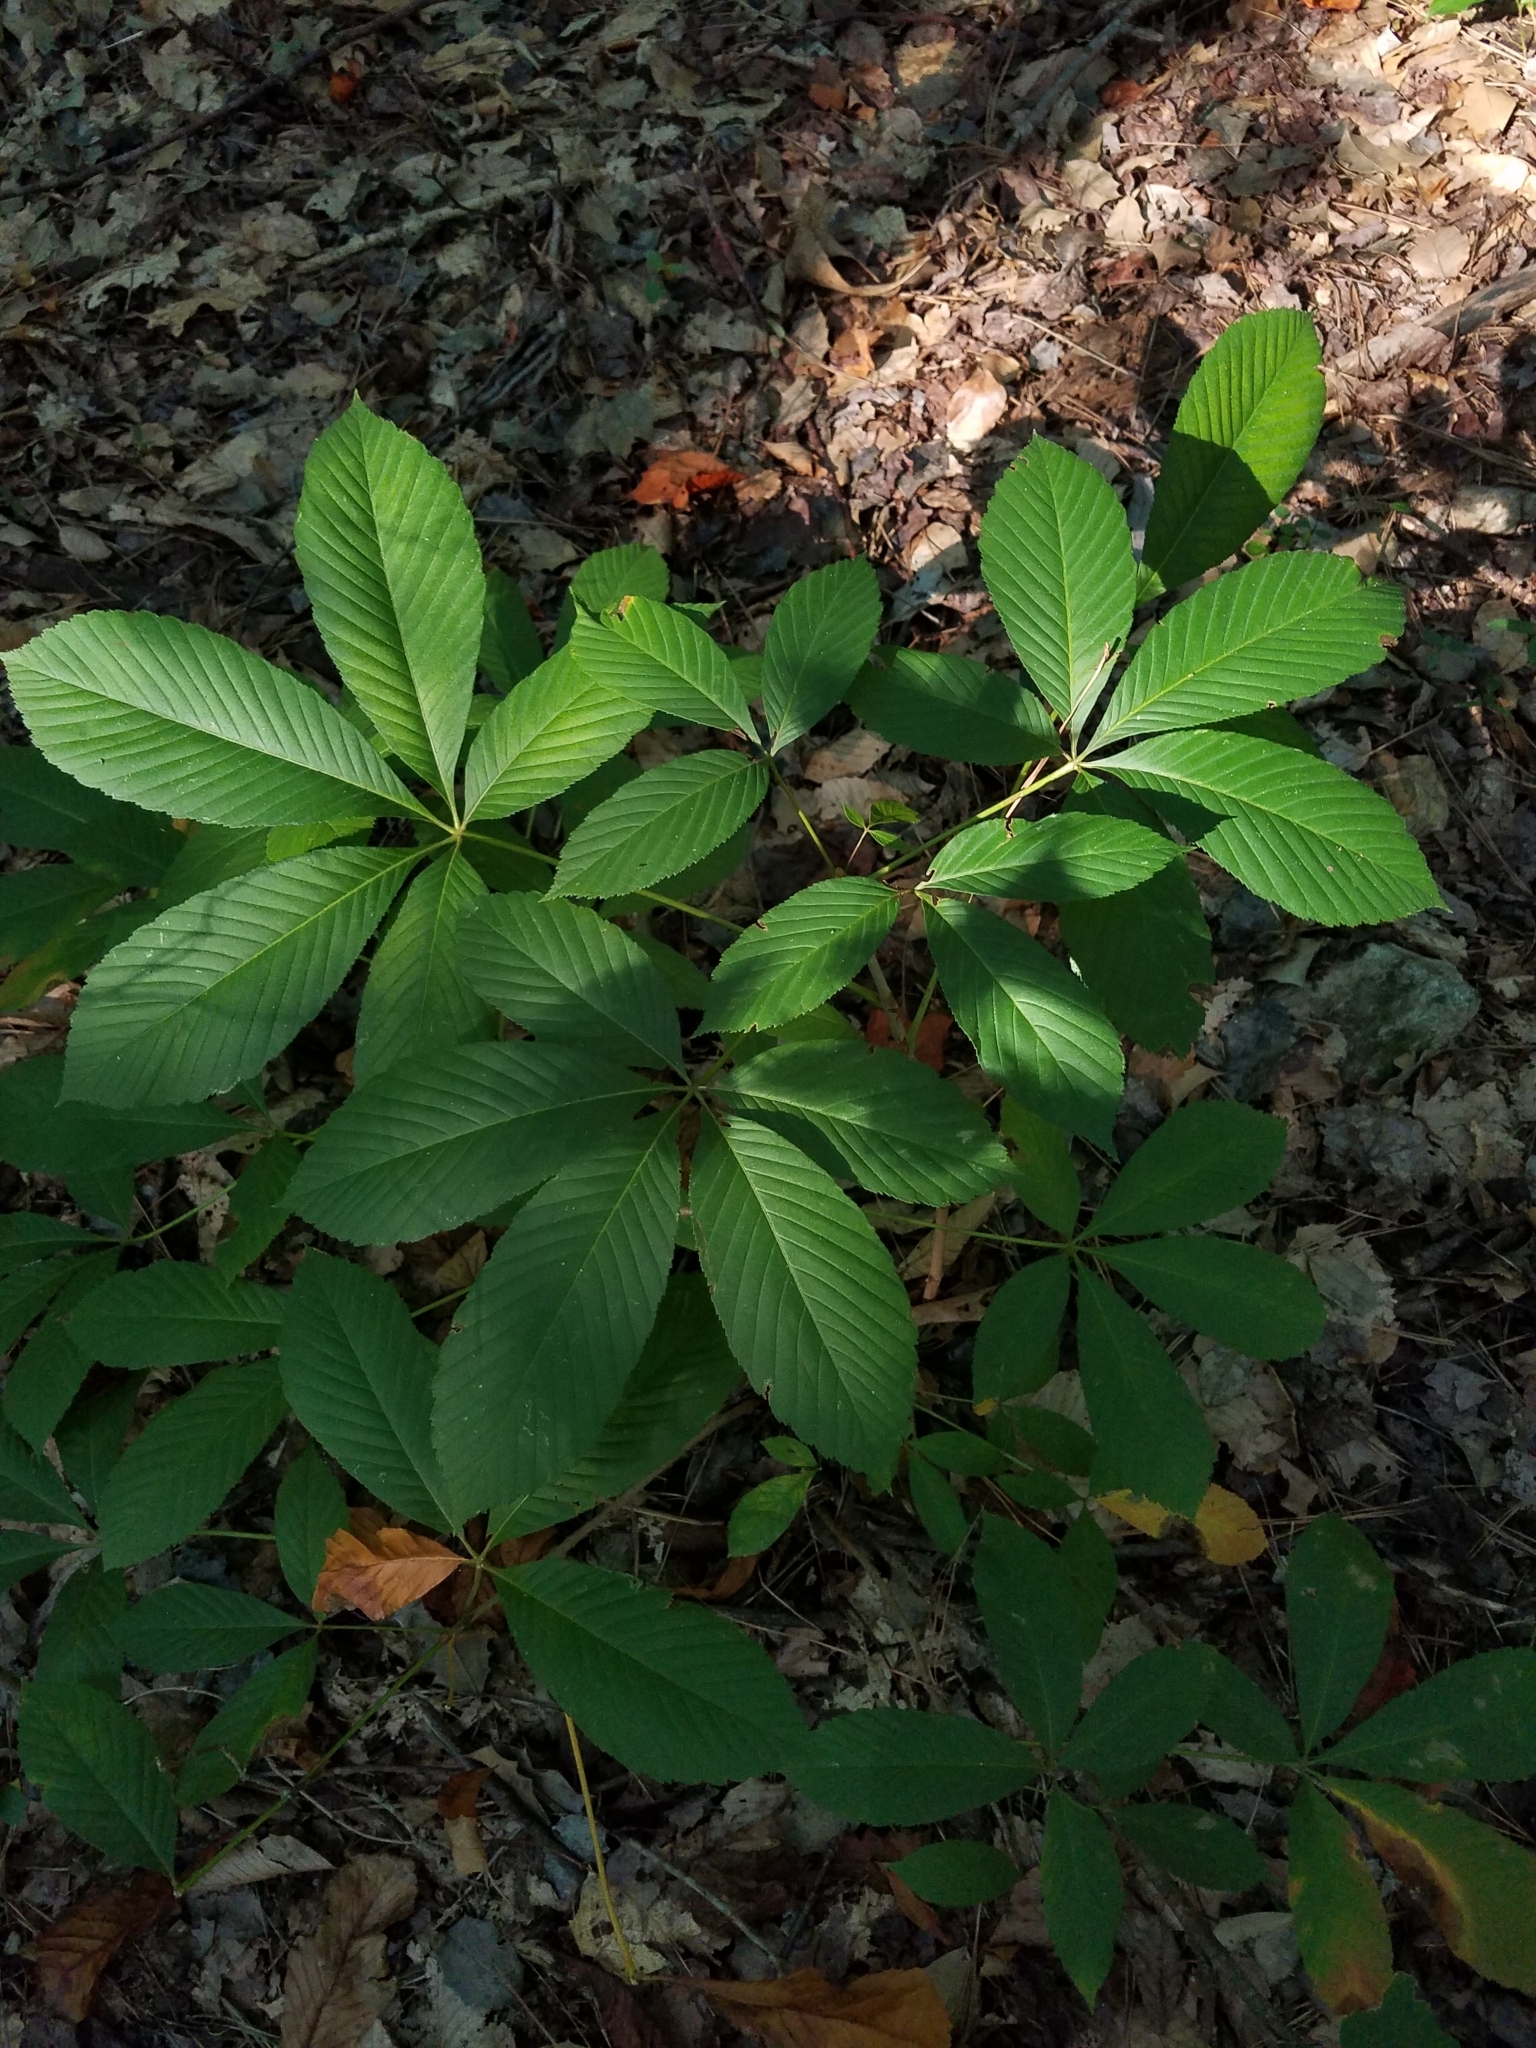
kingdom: Plantae
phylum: Tracheophyta
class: Magnoliopsida
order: Sapindales
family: Sapindaceae
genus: Aesculus
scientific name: Aesculus sylvatica
